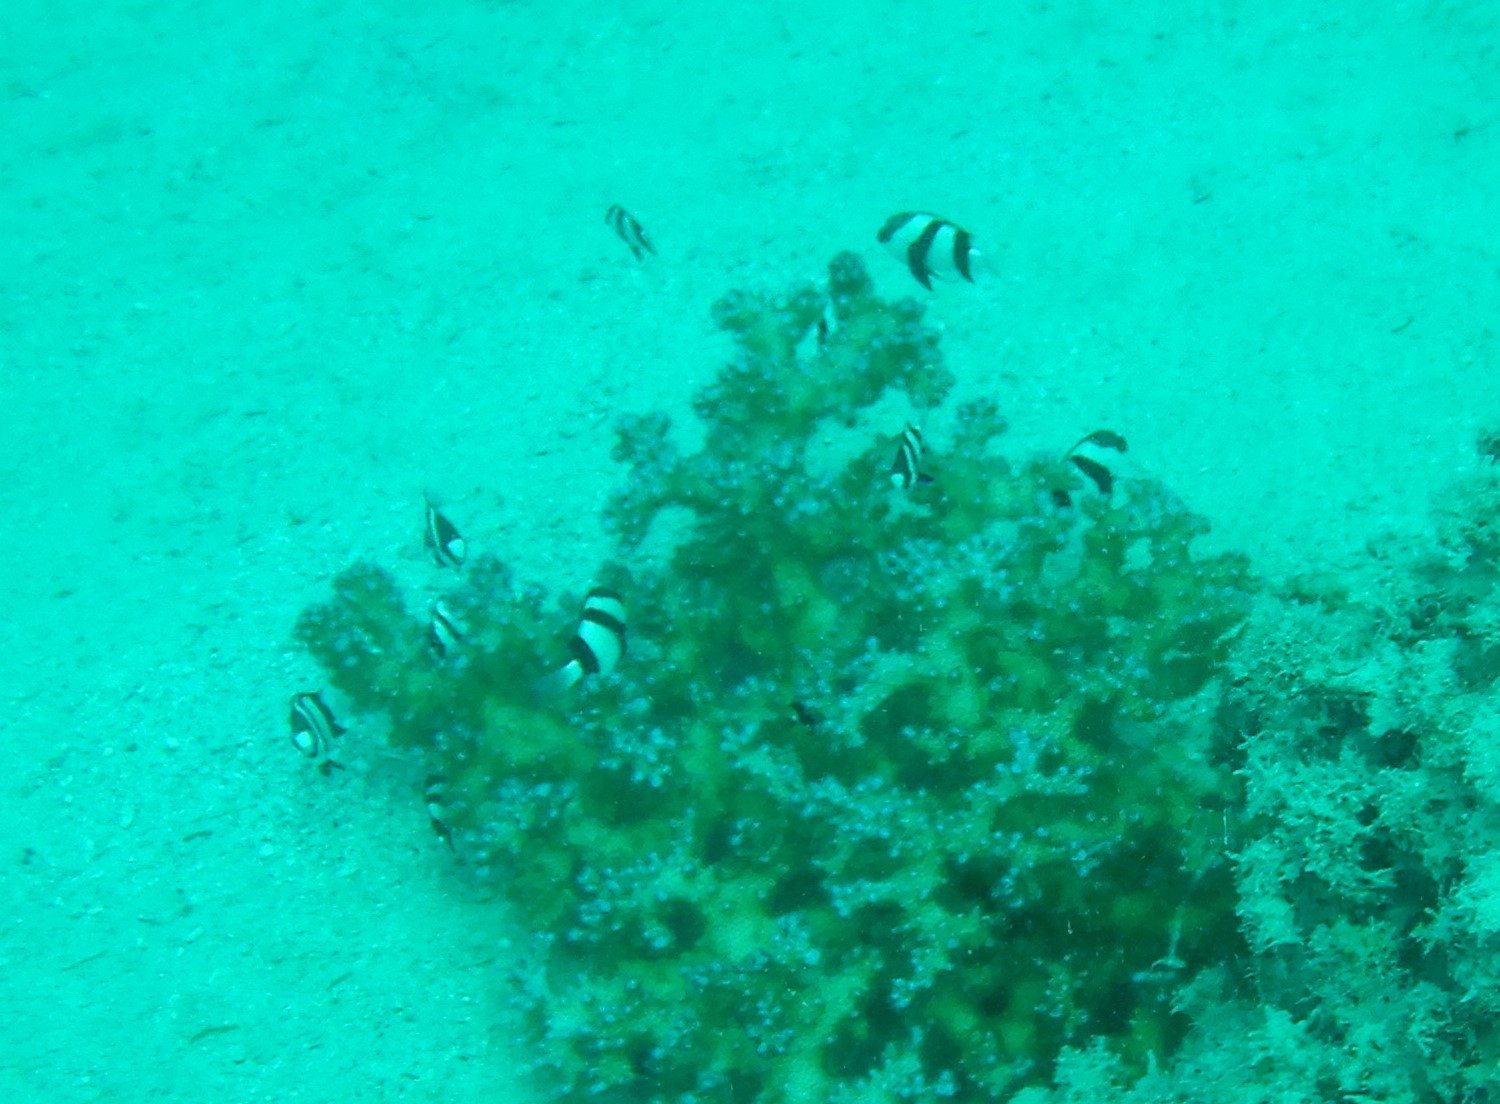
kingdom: Animalia
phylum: Chordata
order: Perciformes
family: Pomacentridae
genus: Dascyllus
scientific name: Dascyllus abudafur
